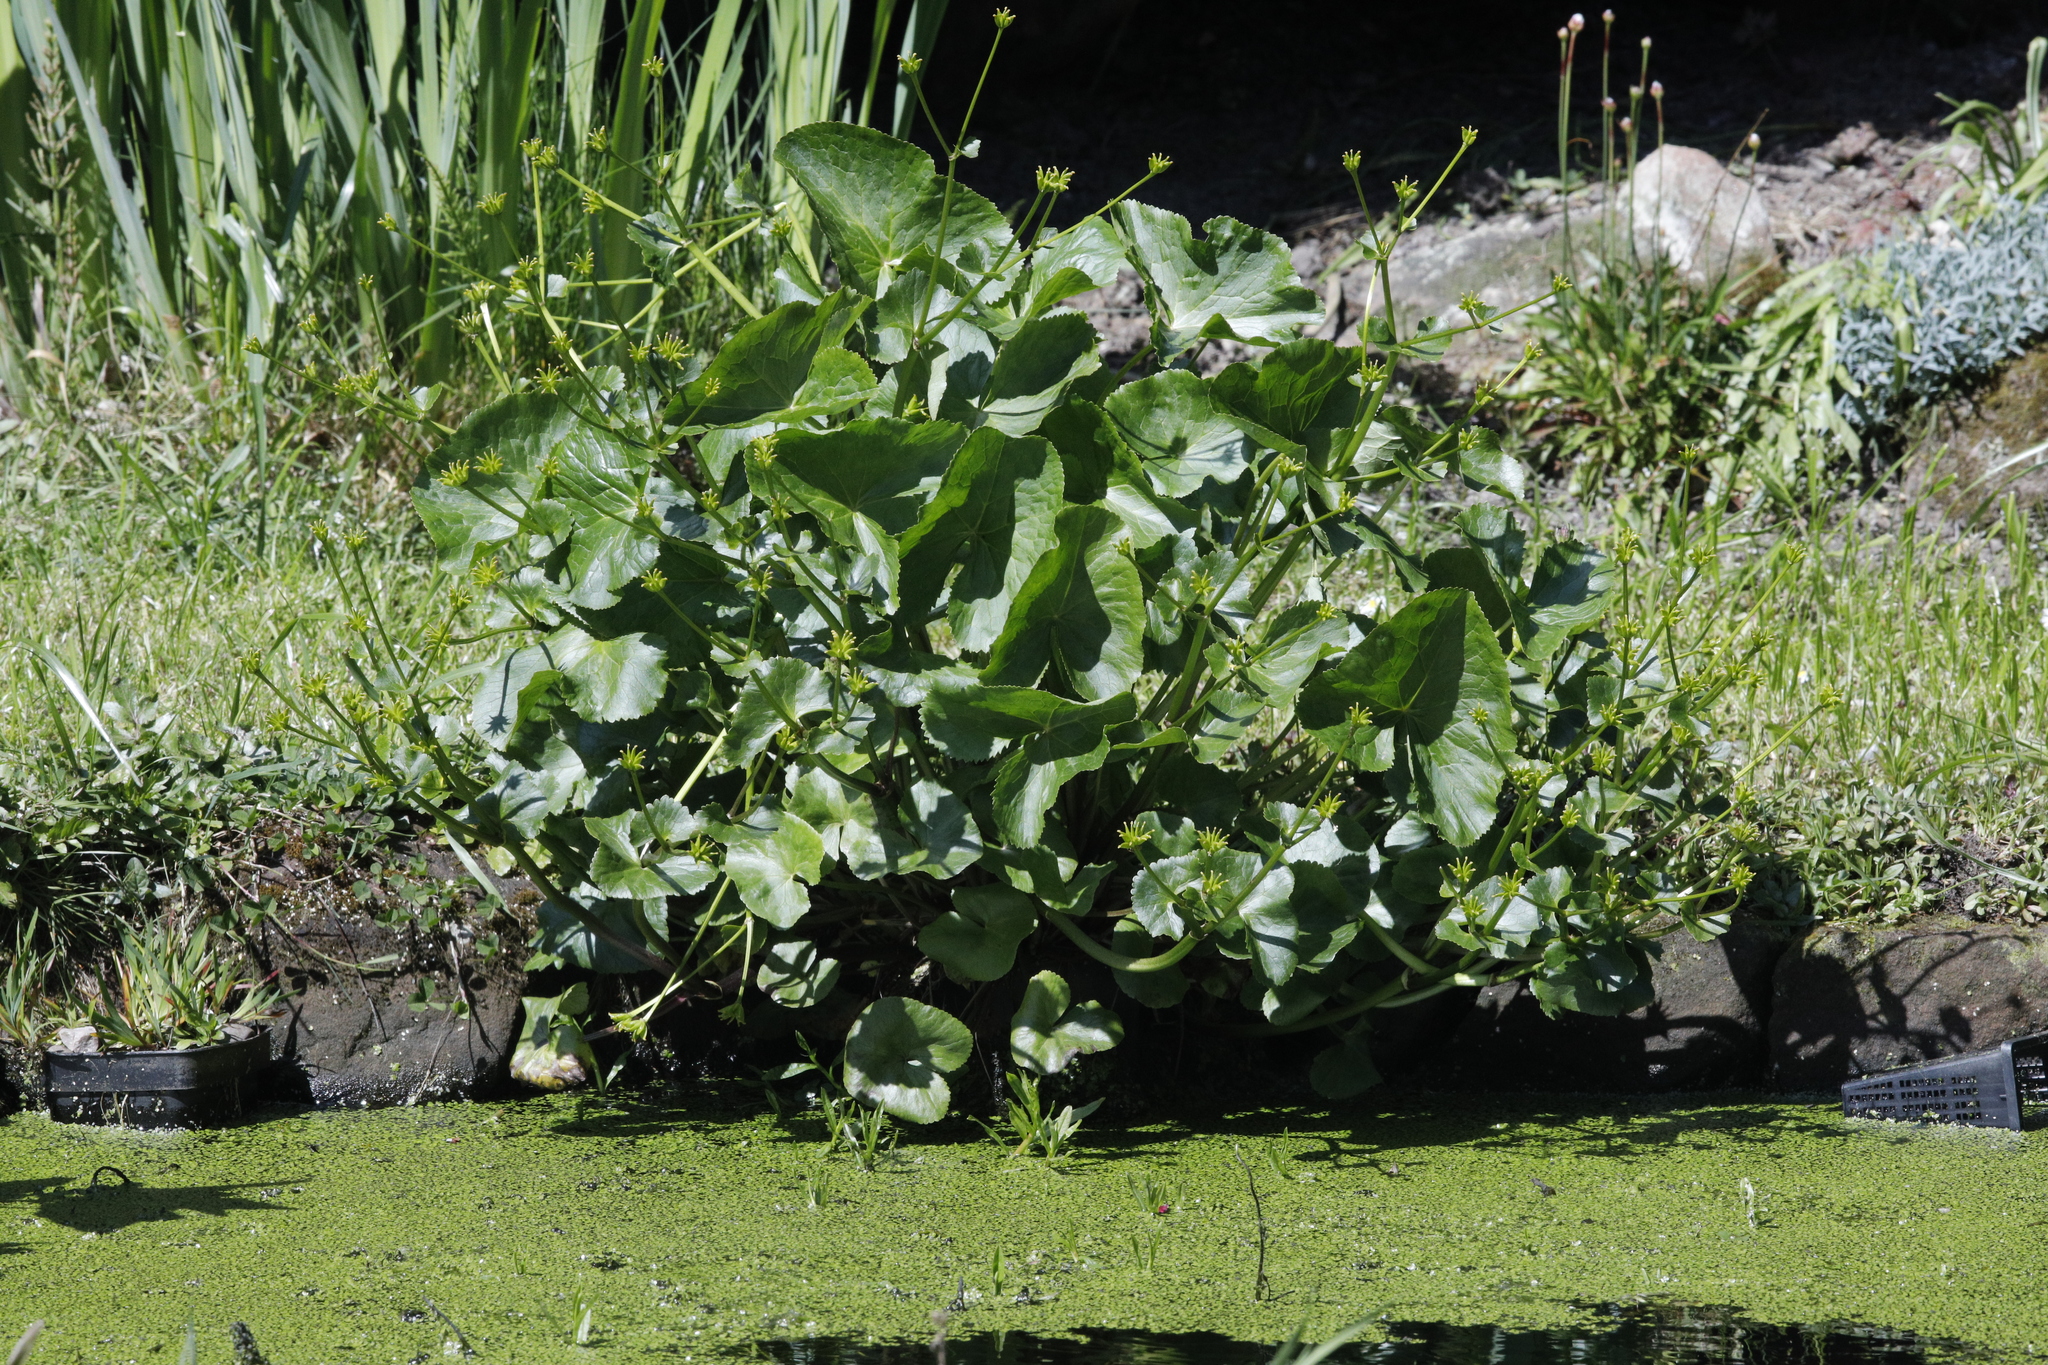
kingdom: Plantae
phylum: Tracheophyta
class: Magnoliopsida
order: Ranunculales
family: Ranunculaceae
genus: Caltha
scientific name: Caltha palustris
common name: Marsh marigold
